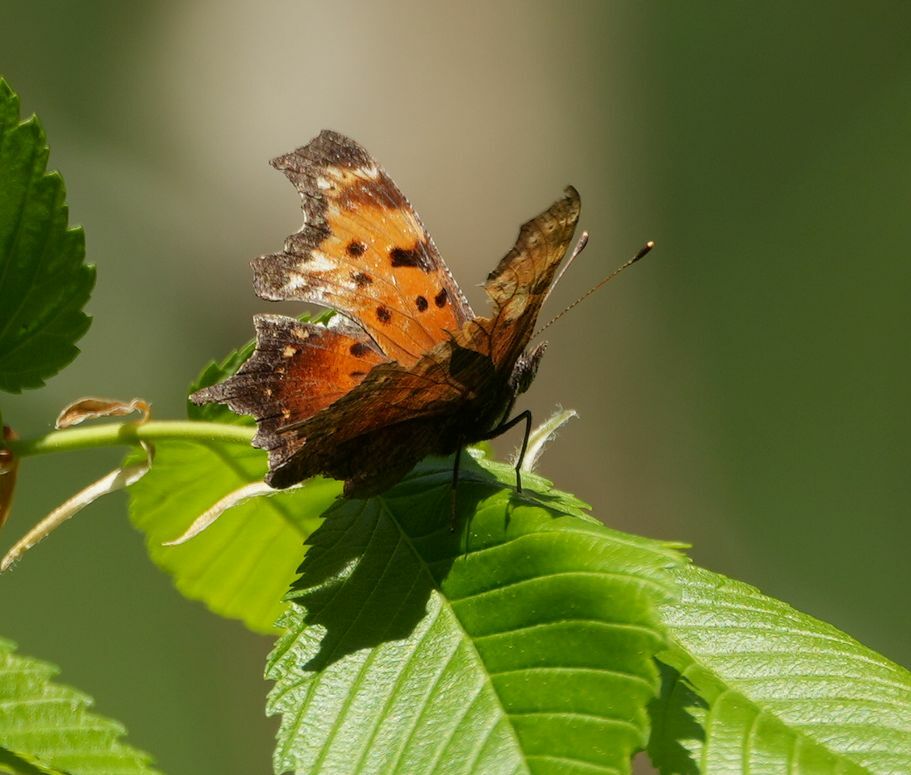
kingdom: Animalia
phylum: Arthropoda
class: Insecta
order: Lepidoptera
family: Nymphalidae
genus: Polygonia
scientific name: Polygonia progne
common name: Gray comma
